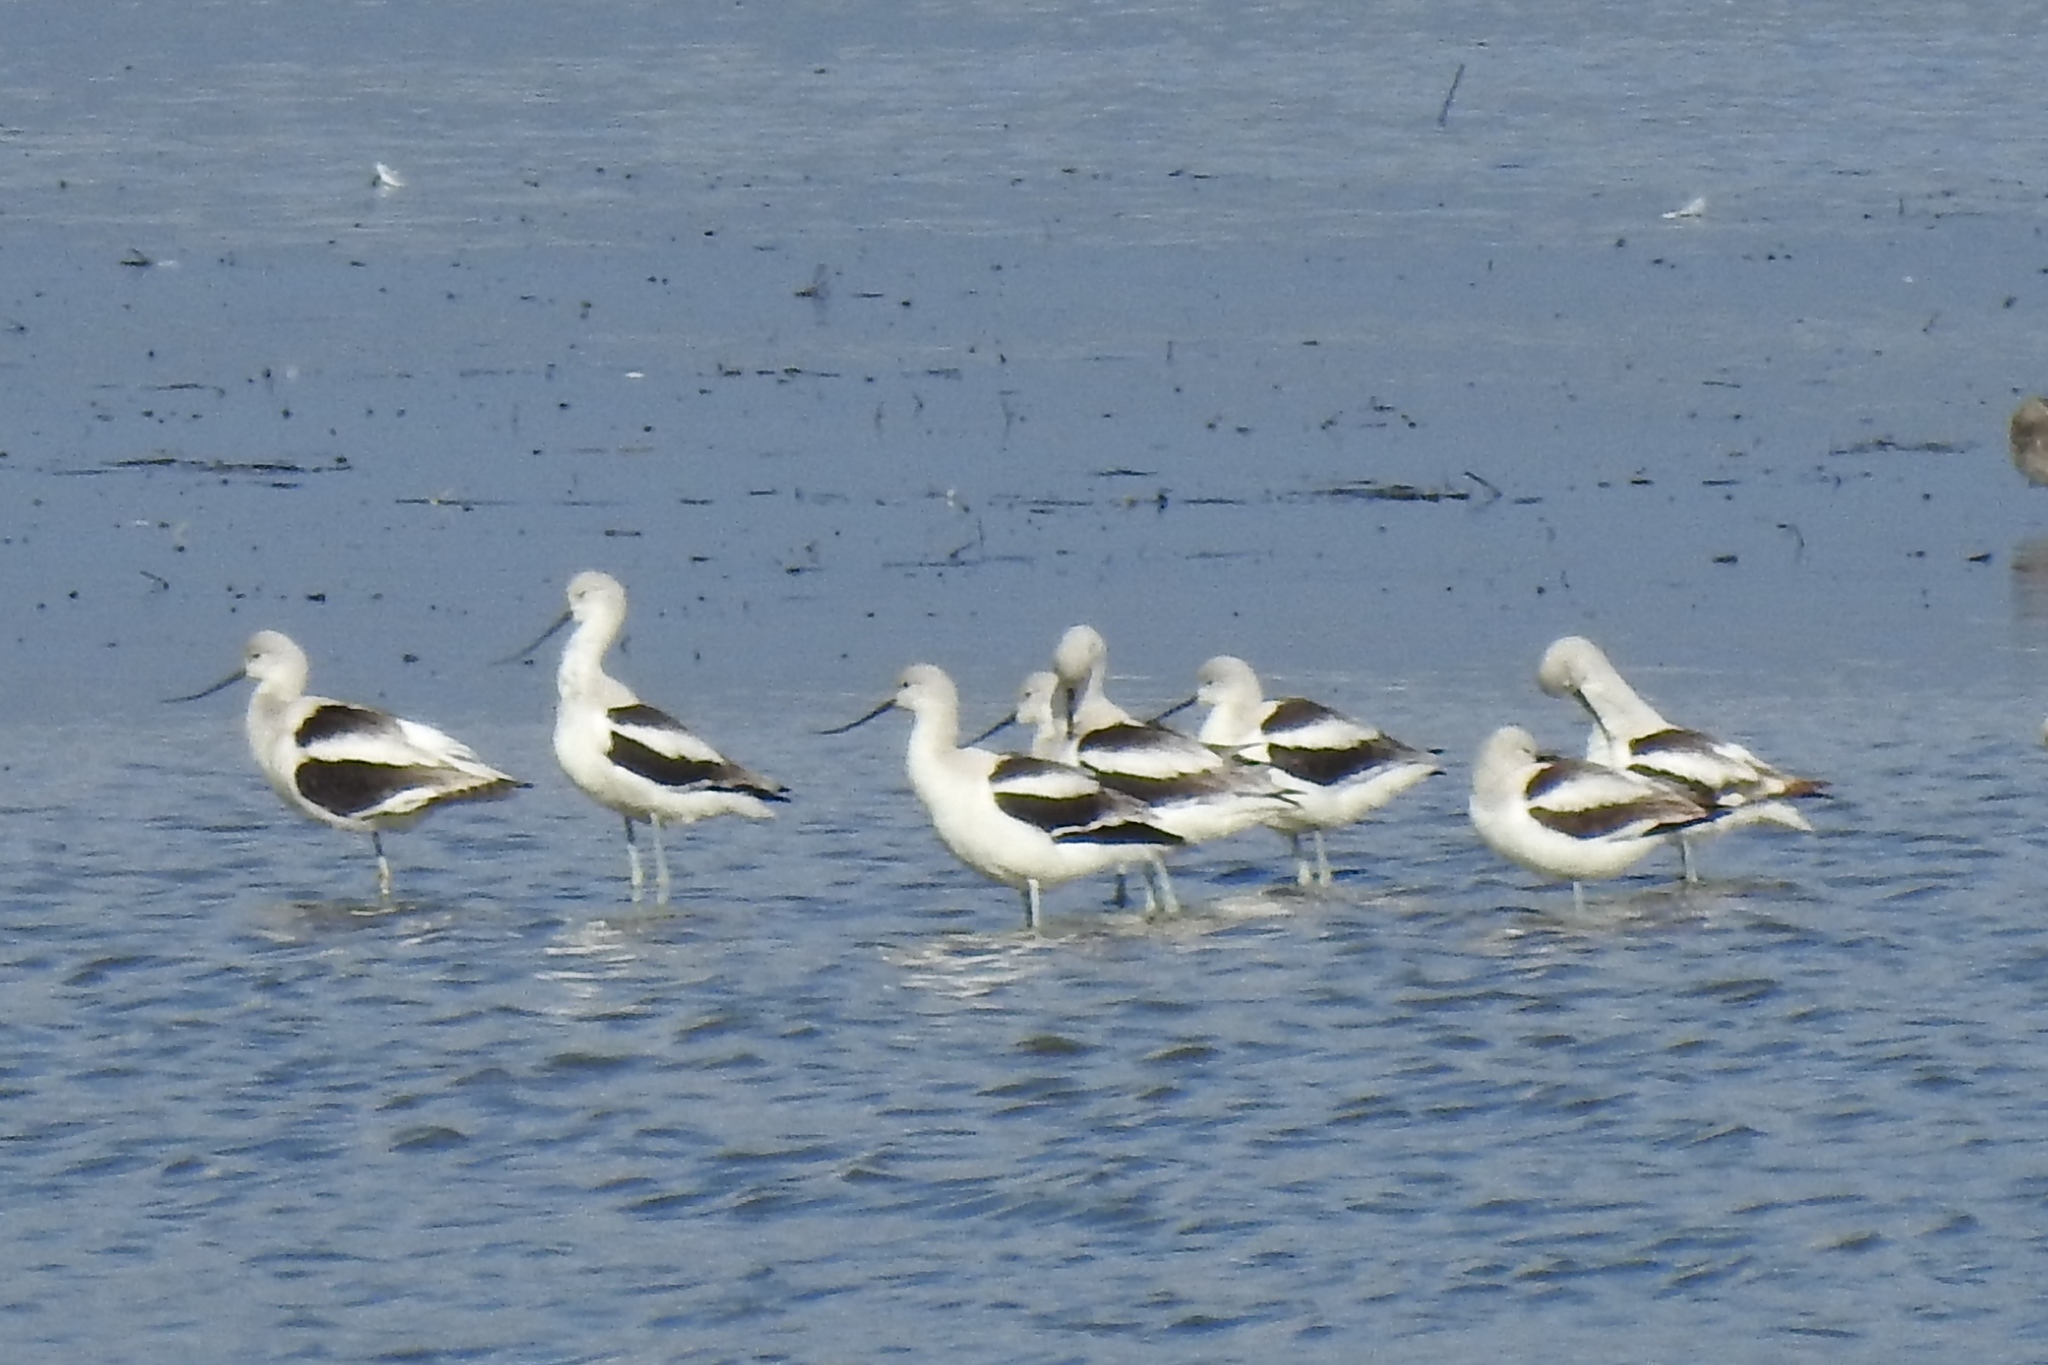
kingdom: Animalia
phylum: Chordata
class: Aves
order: Charadriiformes
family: Recurvirostridae
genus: Recurvirostra
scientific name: Recurvirostra americana
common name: American avocet
